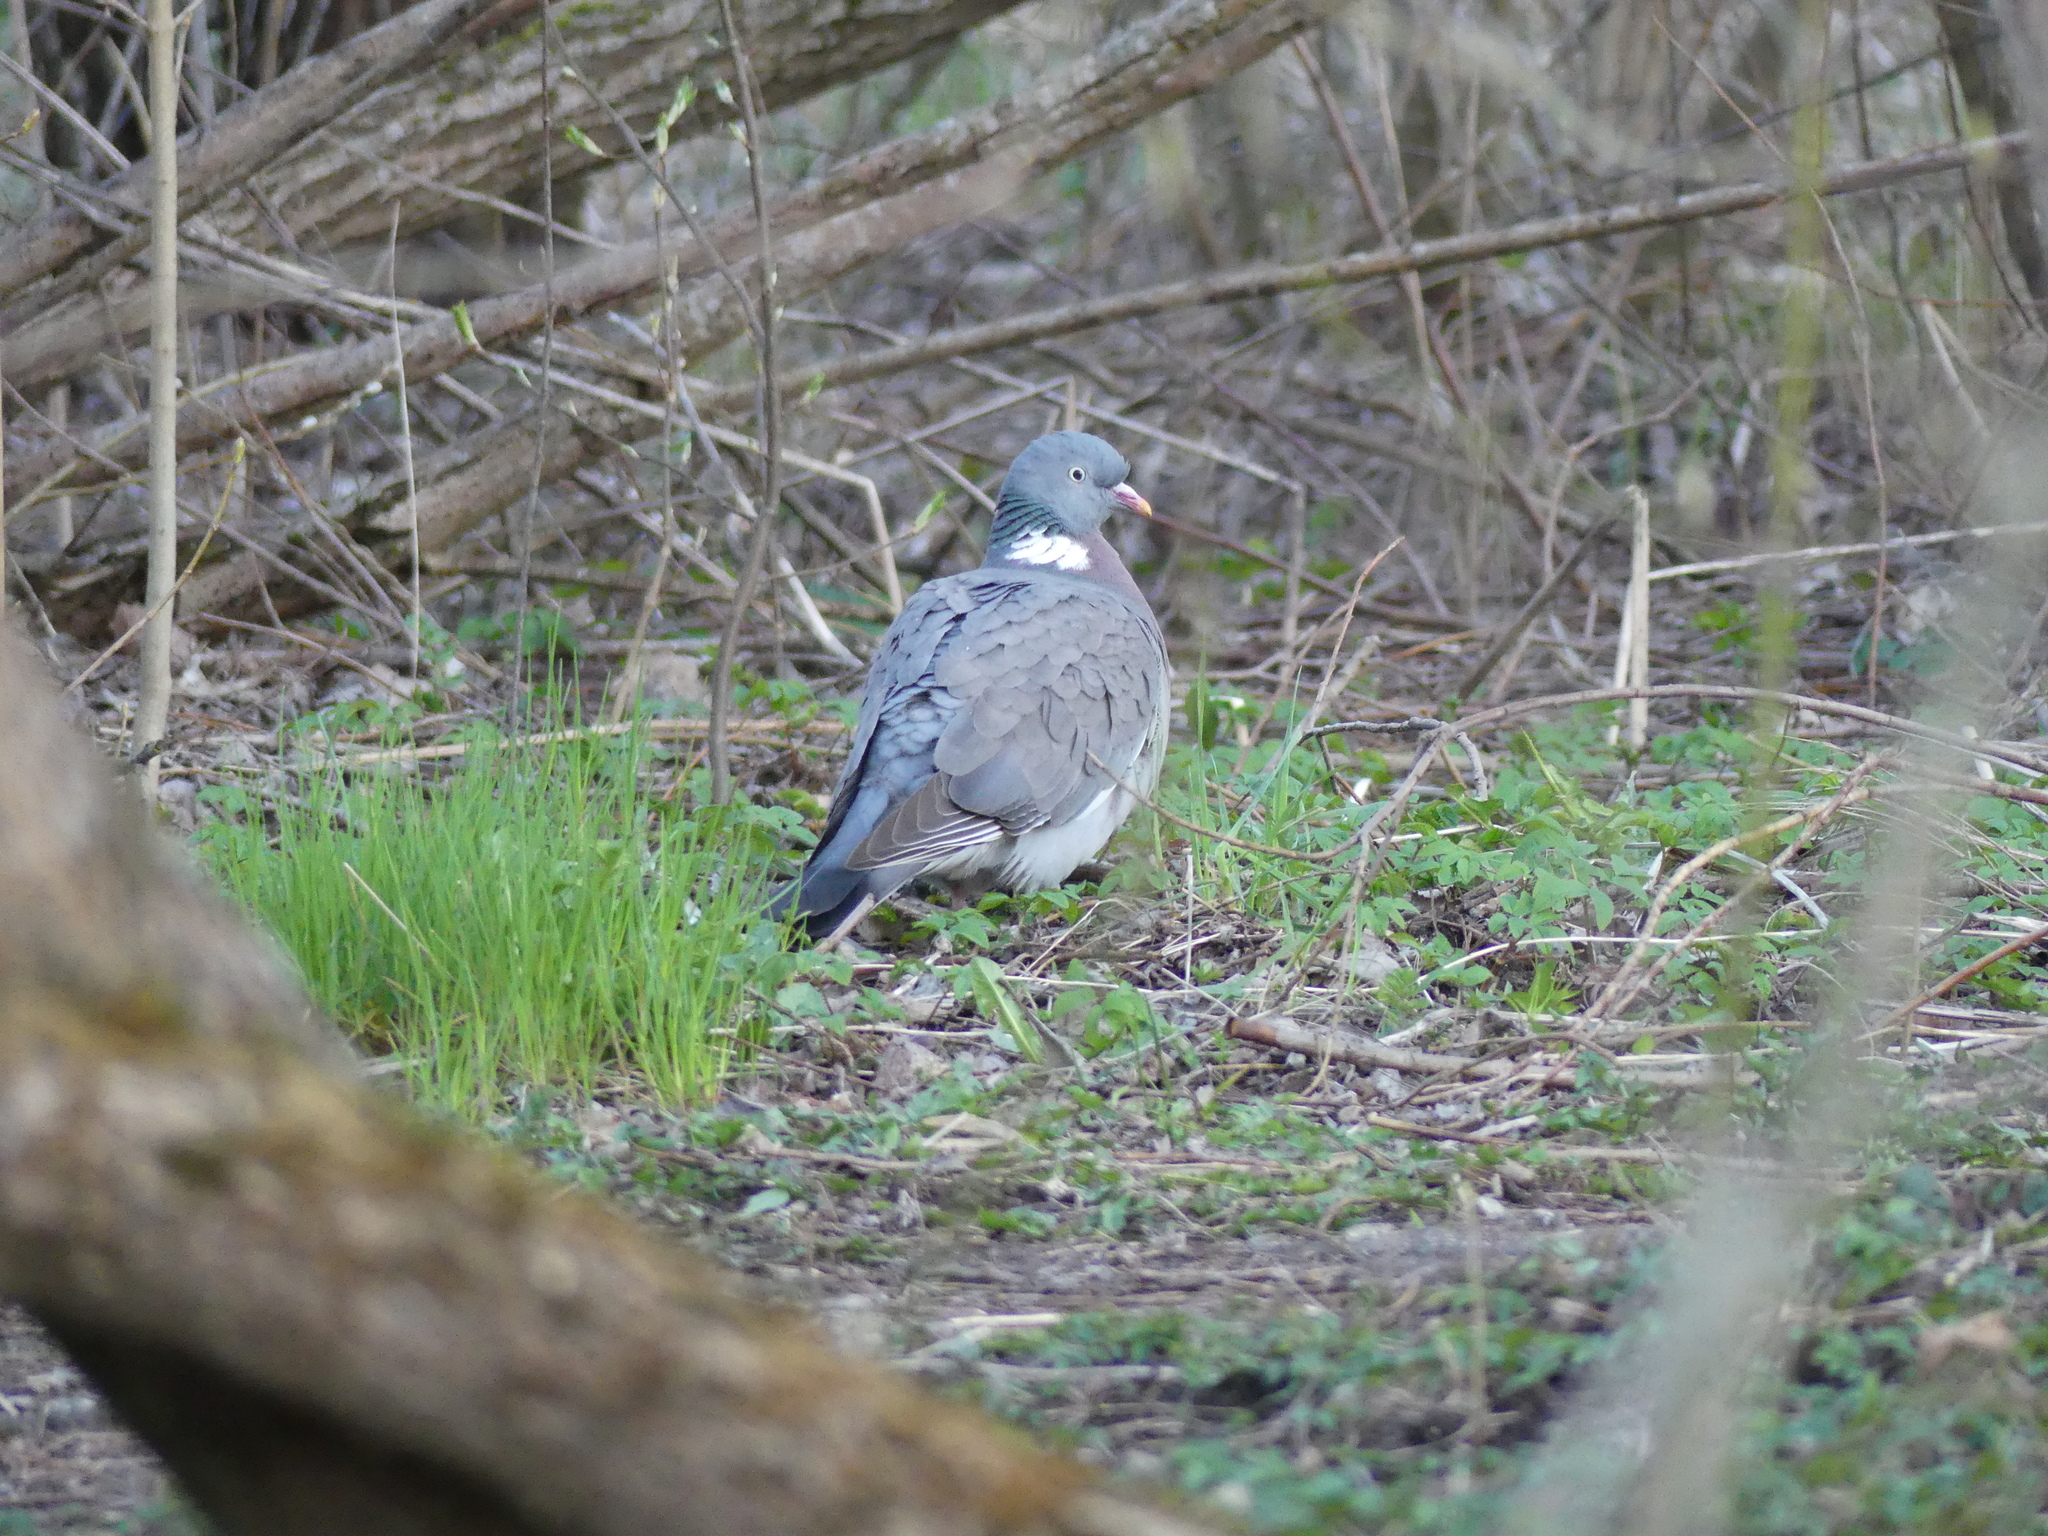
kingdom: Animalia
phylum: Chordata
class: Aves
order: Columbiformes
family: Columbidae
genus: Columba
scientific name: Columba palumbus
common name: Common wood pigeon
